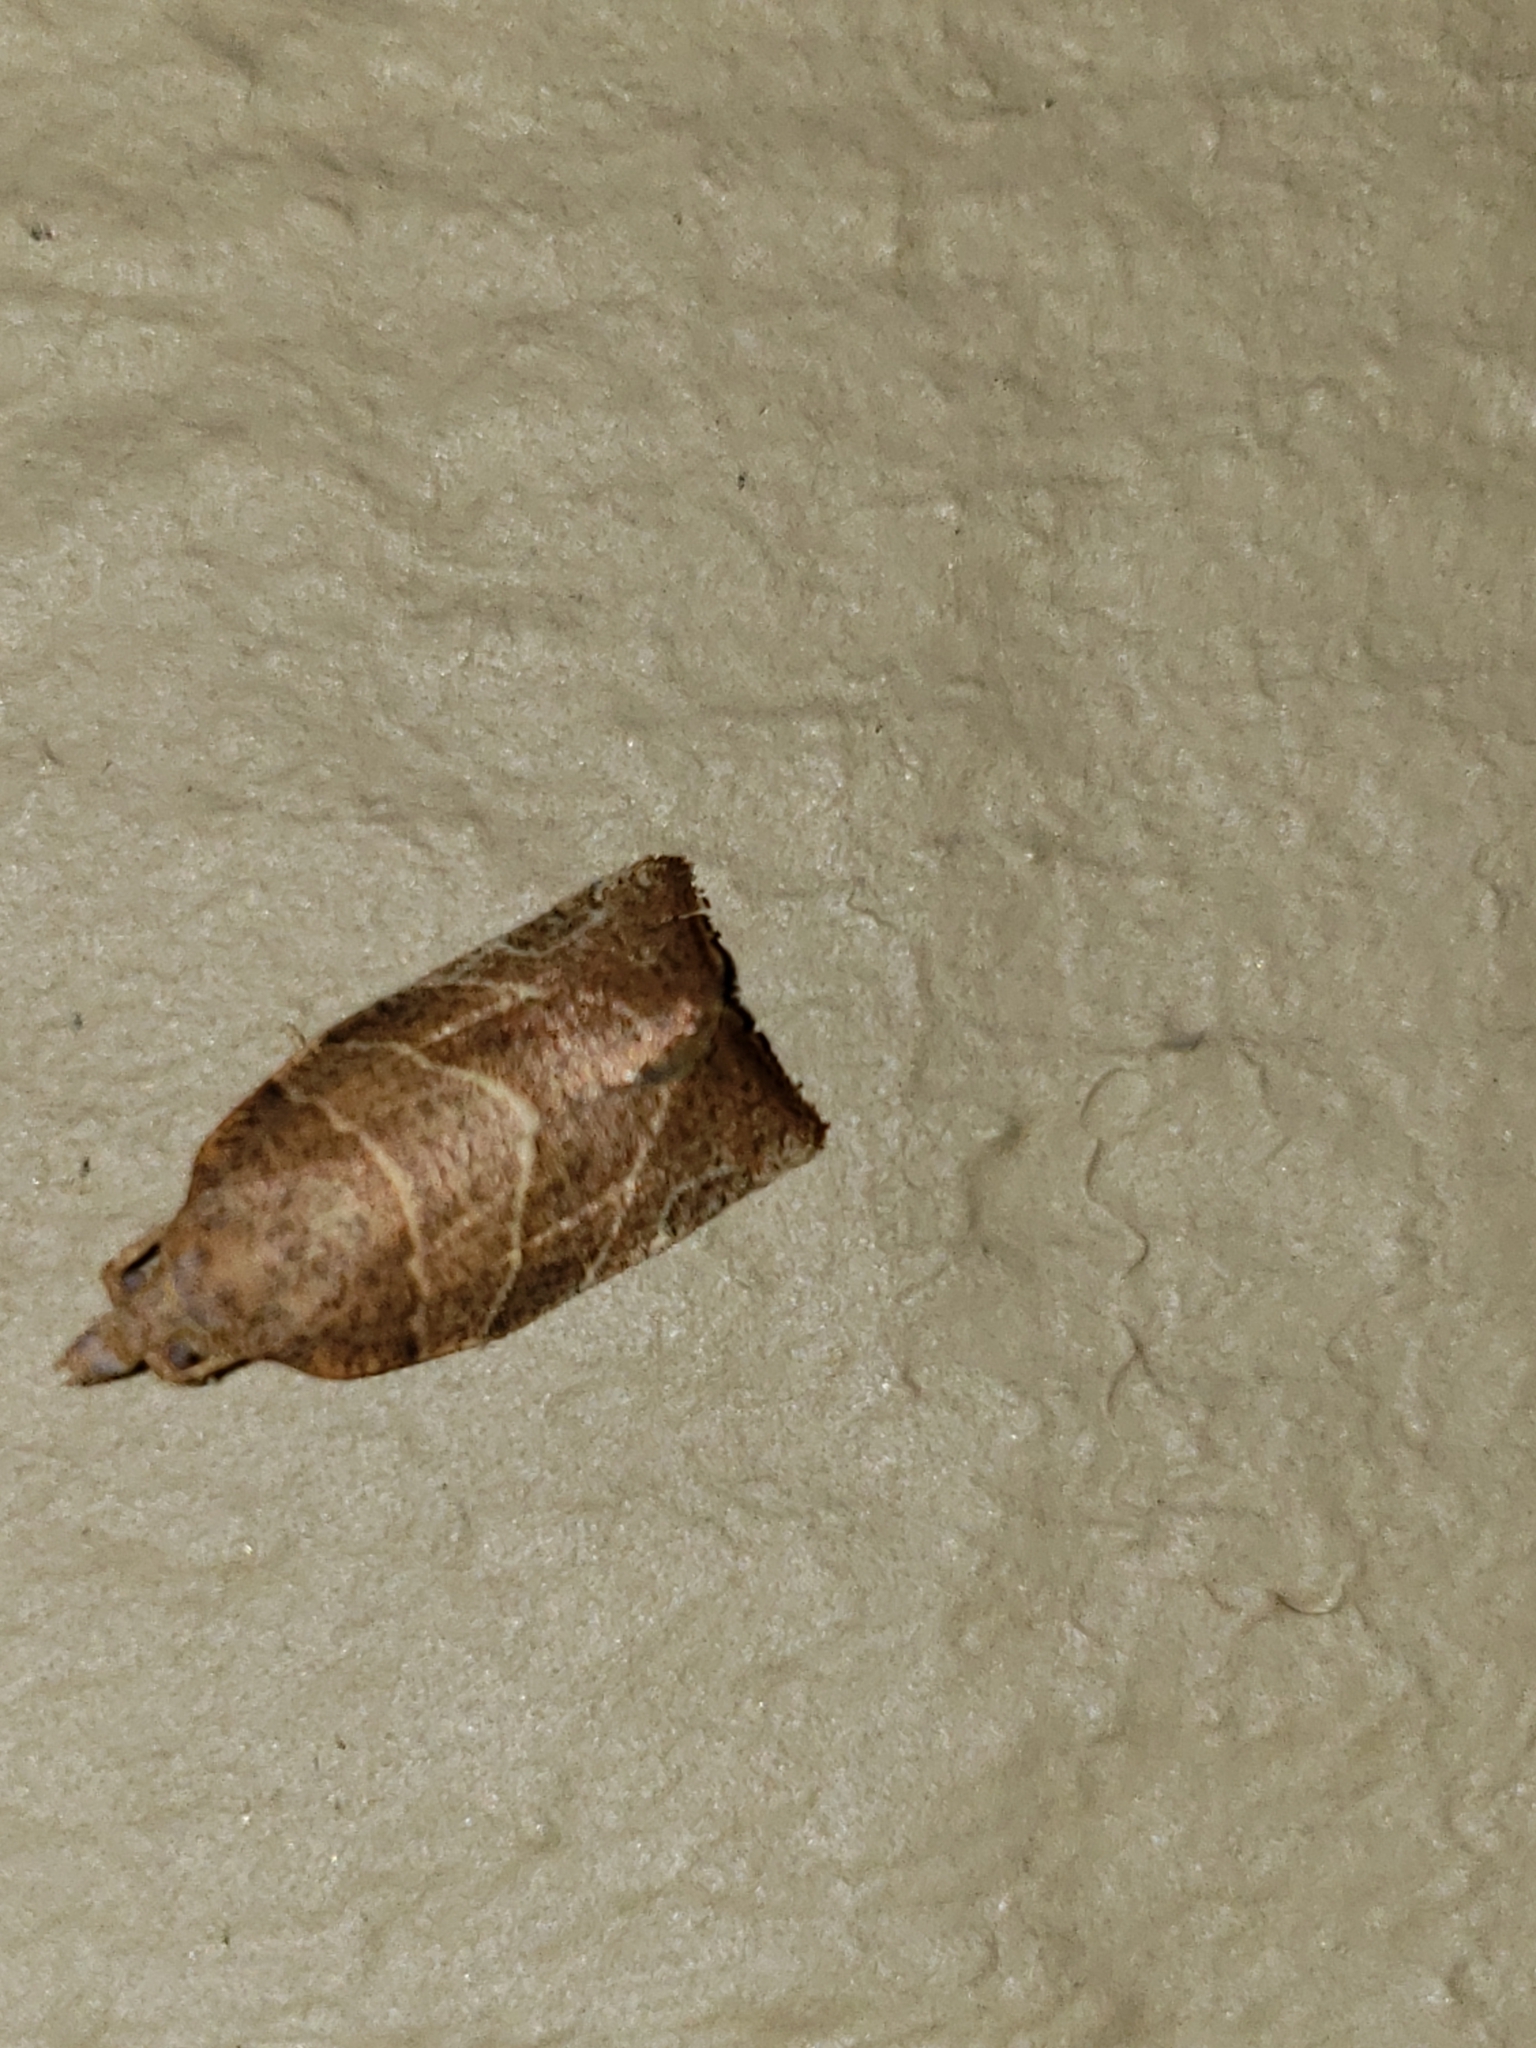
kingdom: Animalia
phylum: Arthropoda
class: Insecta
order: Lepidoptera
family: Tortricidae
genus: Pandemis
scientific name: Pandemis limitata
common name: Three-lined leafroller moth
